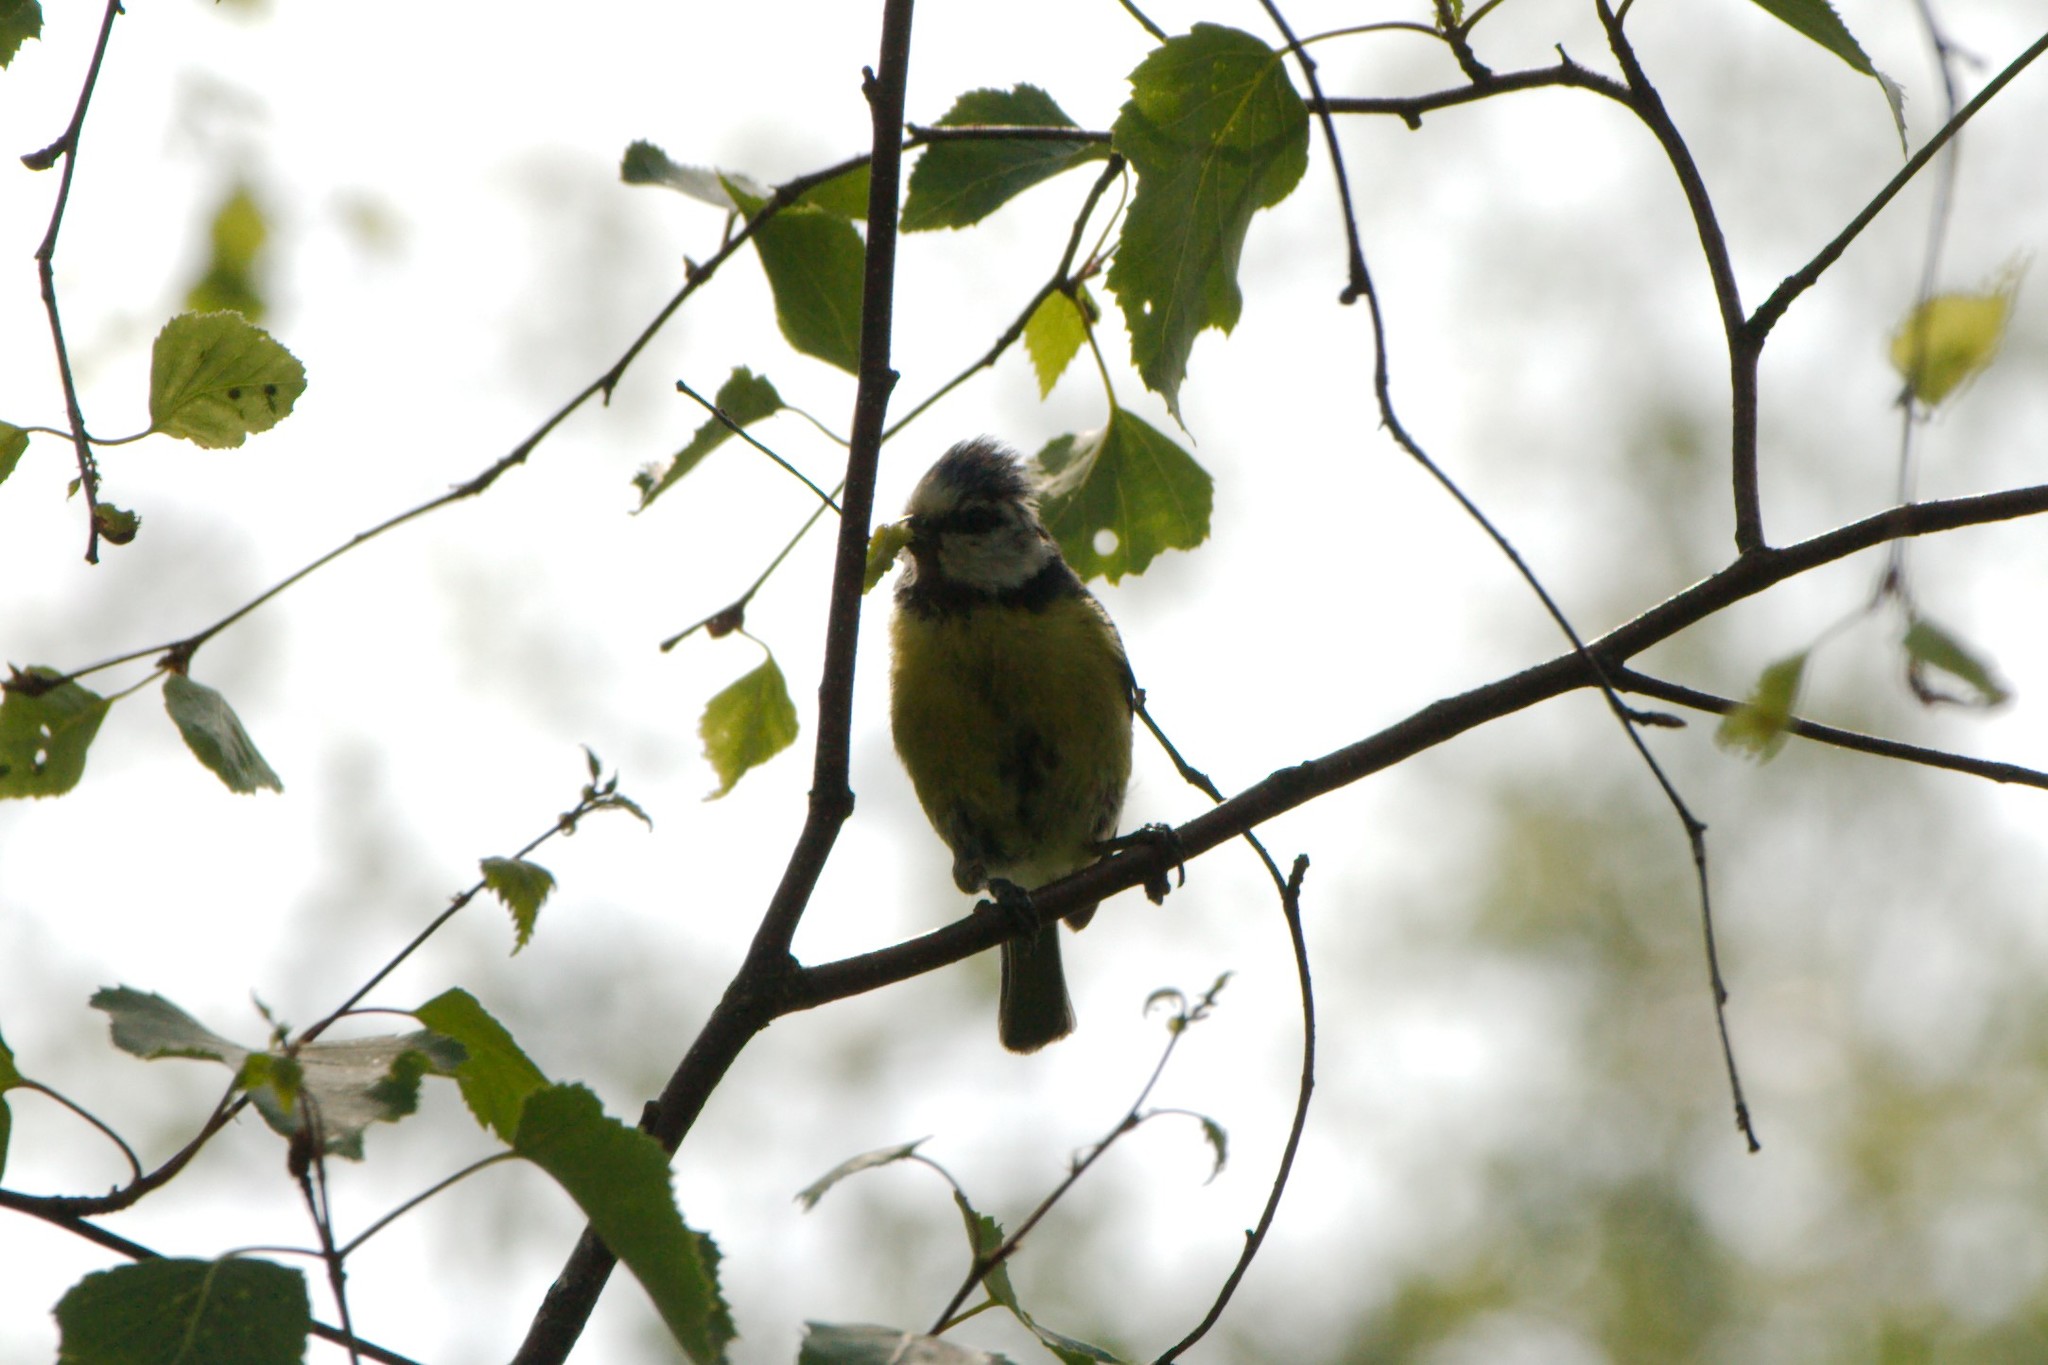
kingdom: Animalia
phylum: Chordata
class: Aves
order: Passeriformes
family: Paridae
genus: Cyanistes
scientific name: Cyanistes caeruleus
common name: Eurasian blue tit
